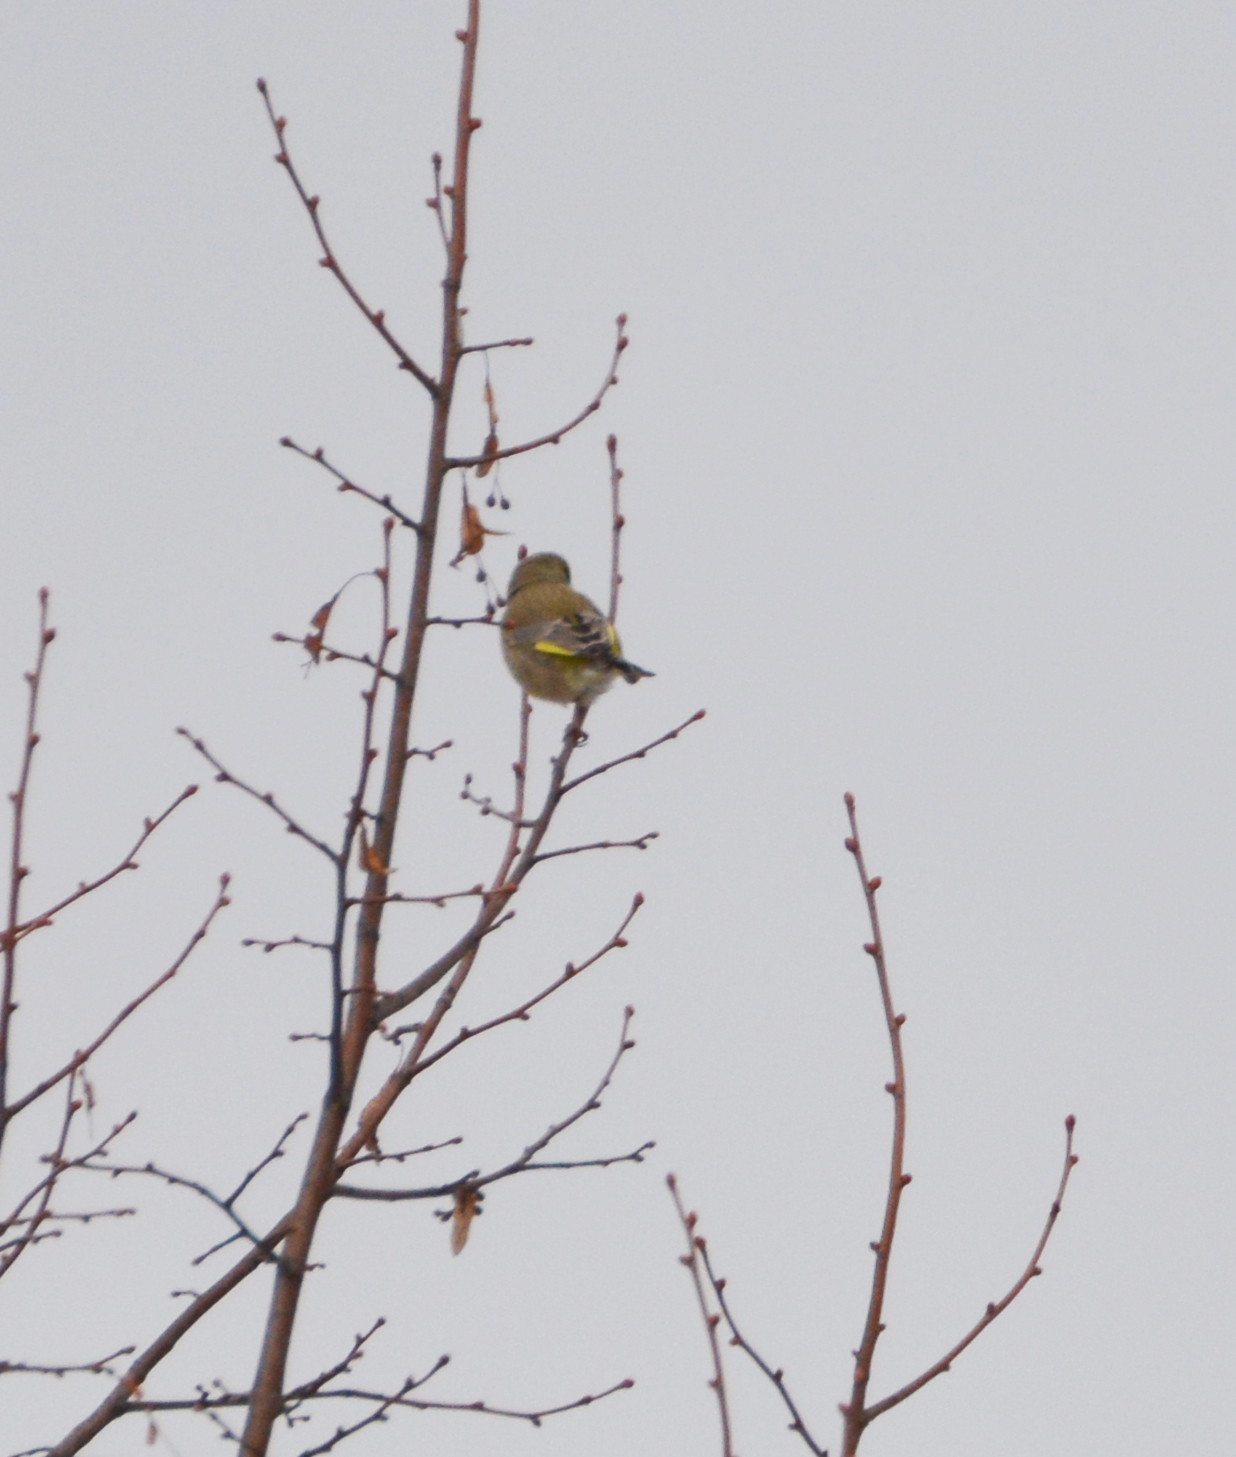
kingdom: Plantae
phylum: Tracheophyta
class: Liliopsida
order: Poales
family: Poaceae
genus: Chloris
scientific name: Chloris chloris
